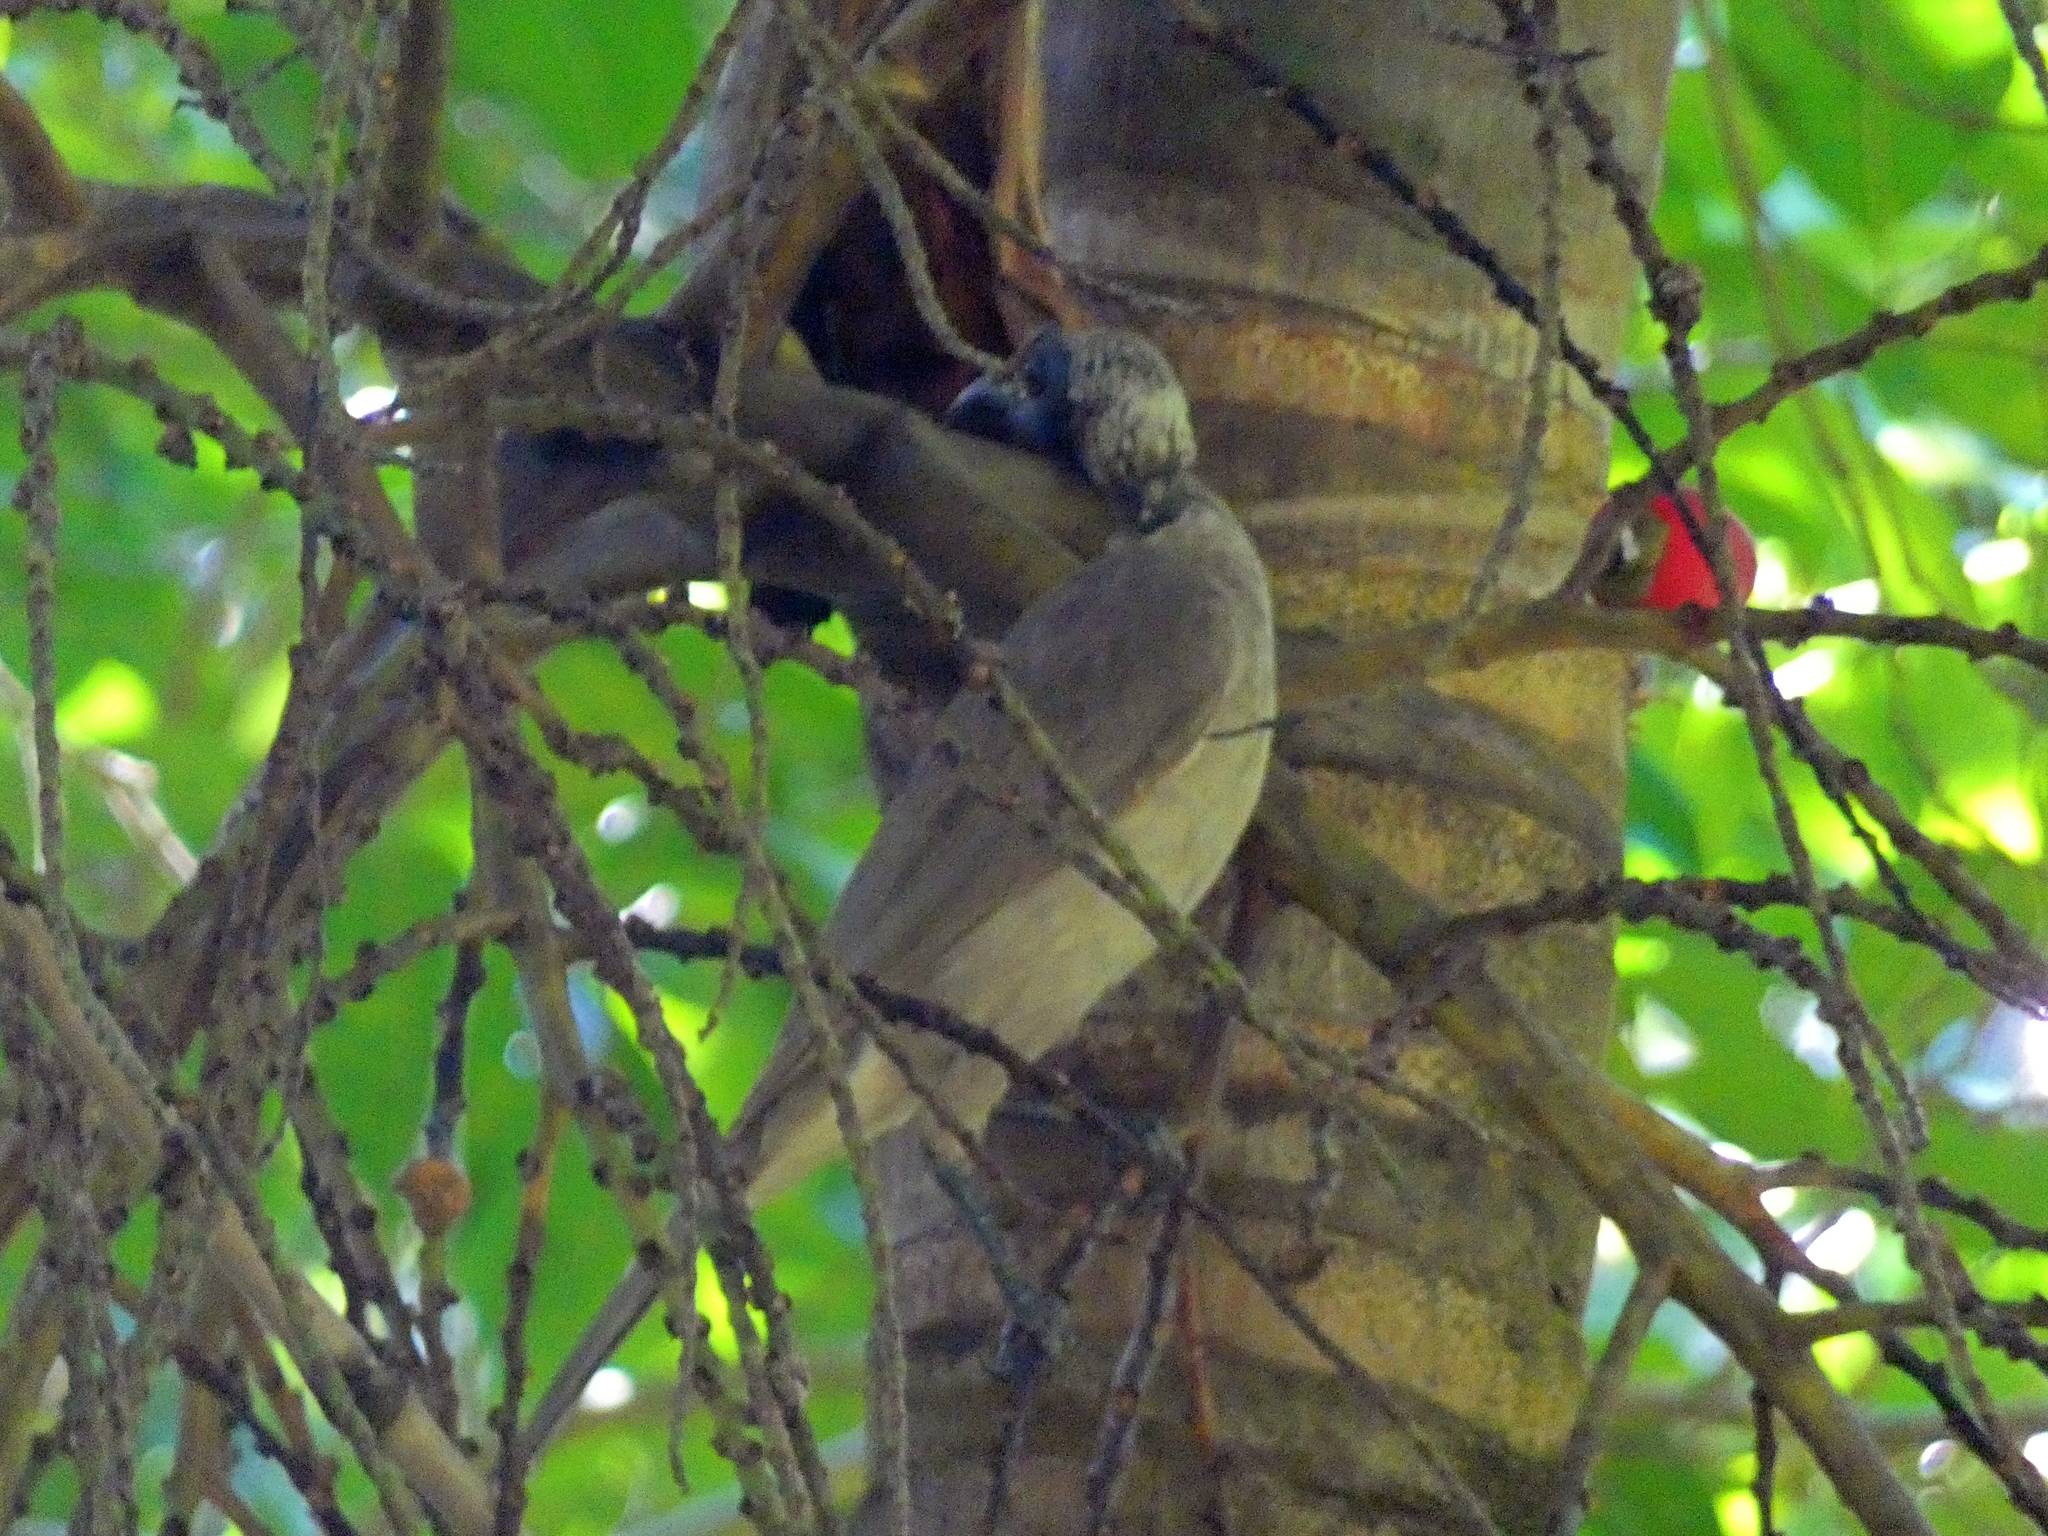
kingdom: Animalia
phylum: Chordata
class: Aves
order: Passeriformes
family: Meliphagidae
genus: Philemon
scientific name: Philemon buceroides
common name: Helmeted friarbird
